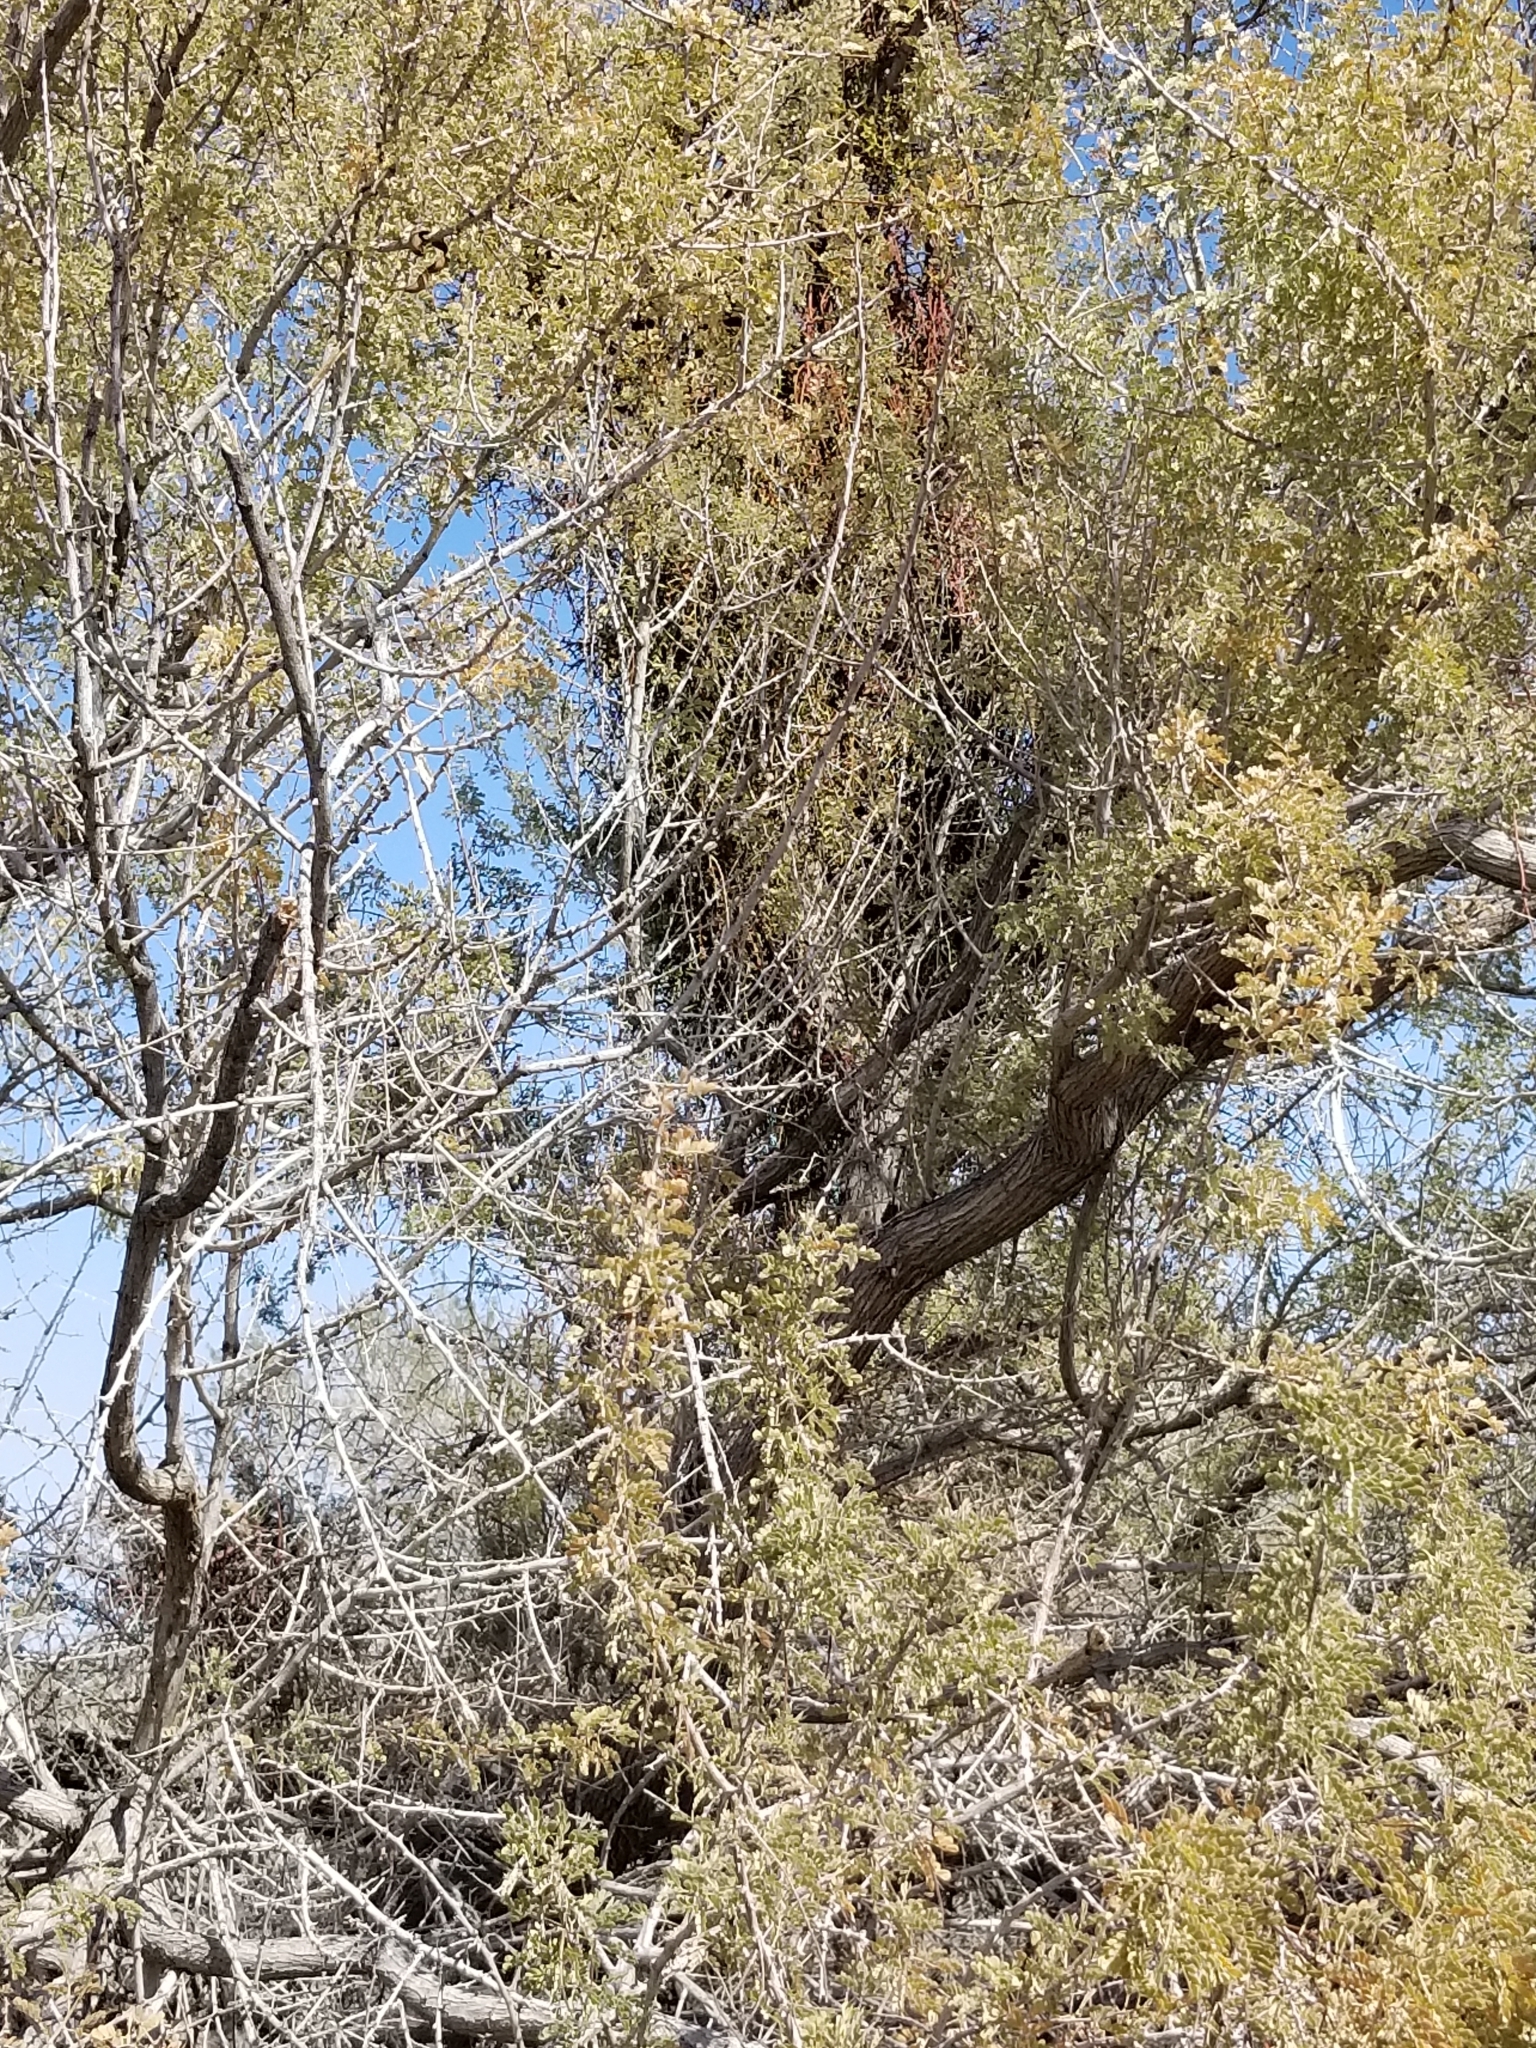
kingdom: Plantae
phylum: Tracheophyta
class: Magnoliopsida
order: Santalales
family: Viscaceae
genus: Phoradendron
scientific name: Phoradendron californicum
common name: Acacia mistletoe
